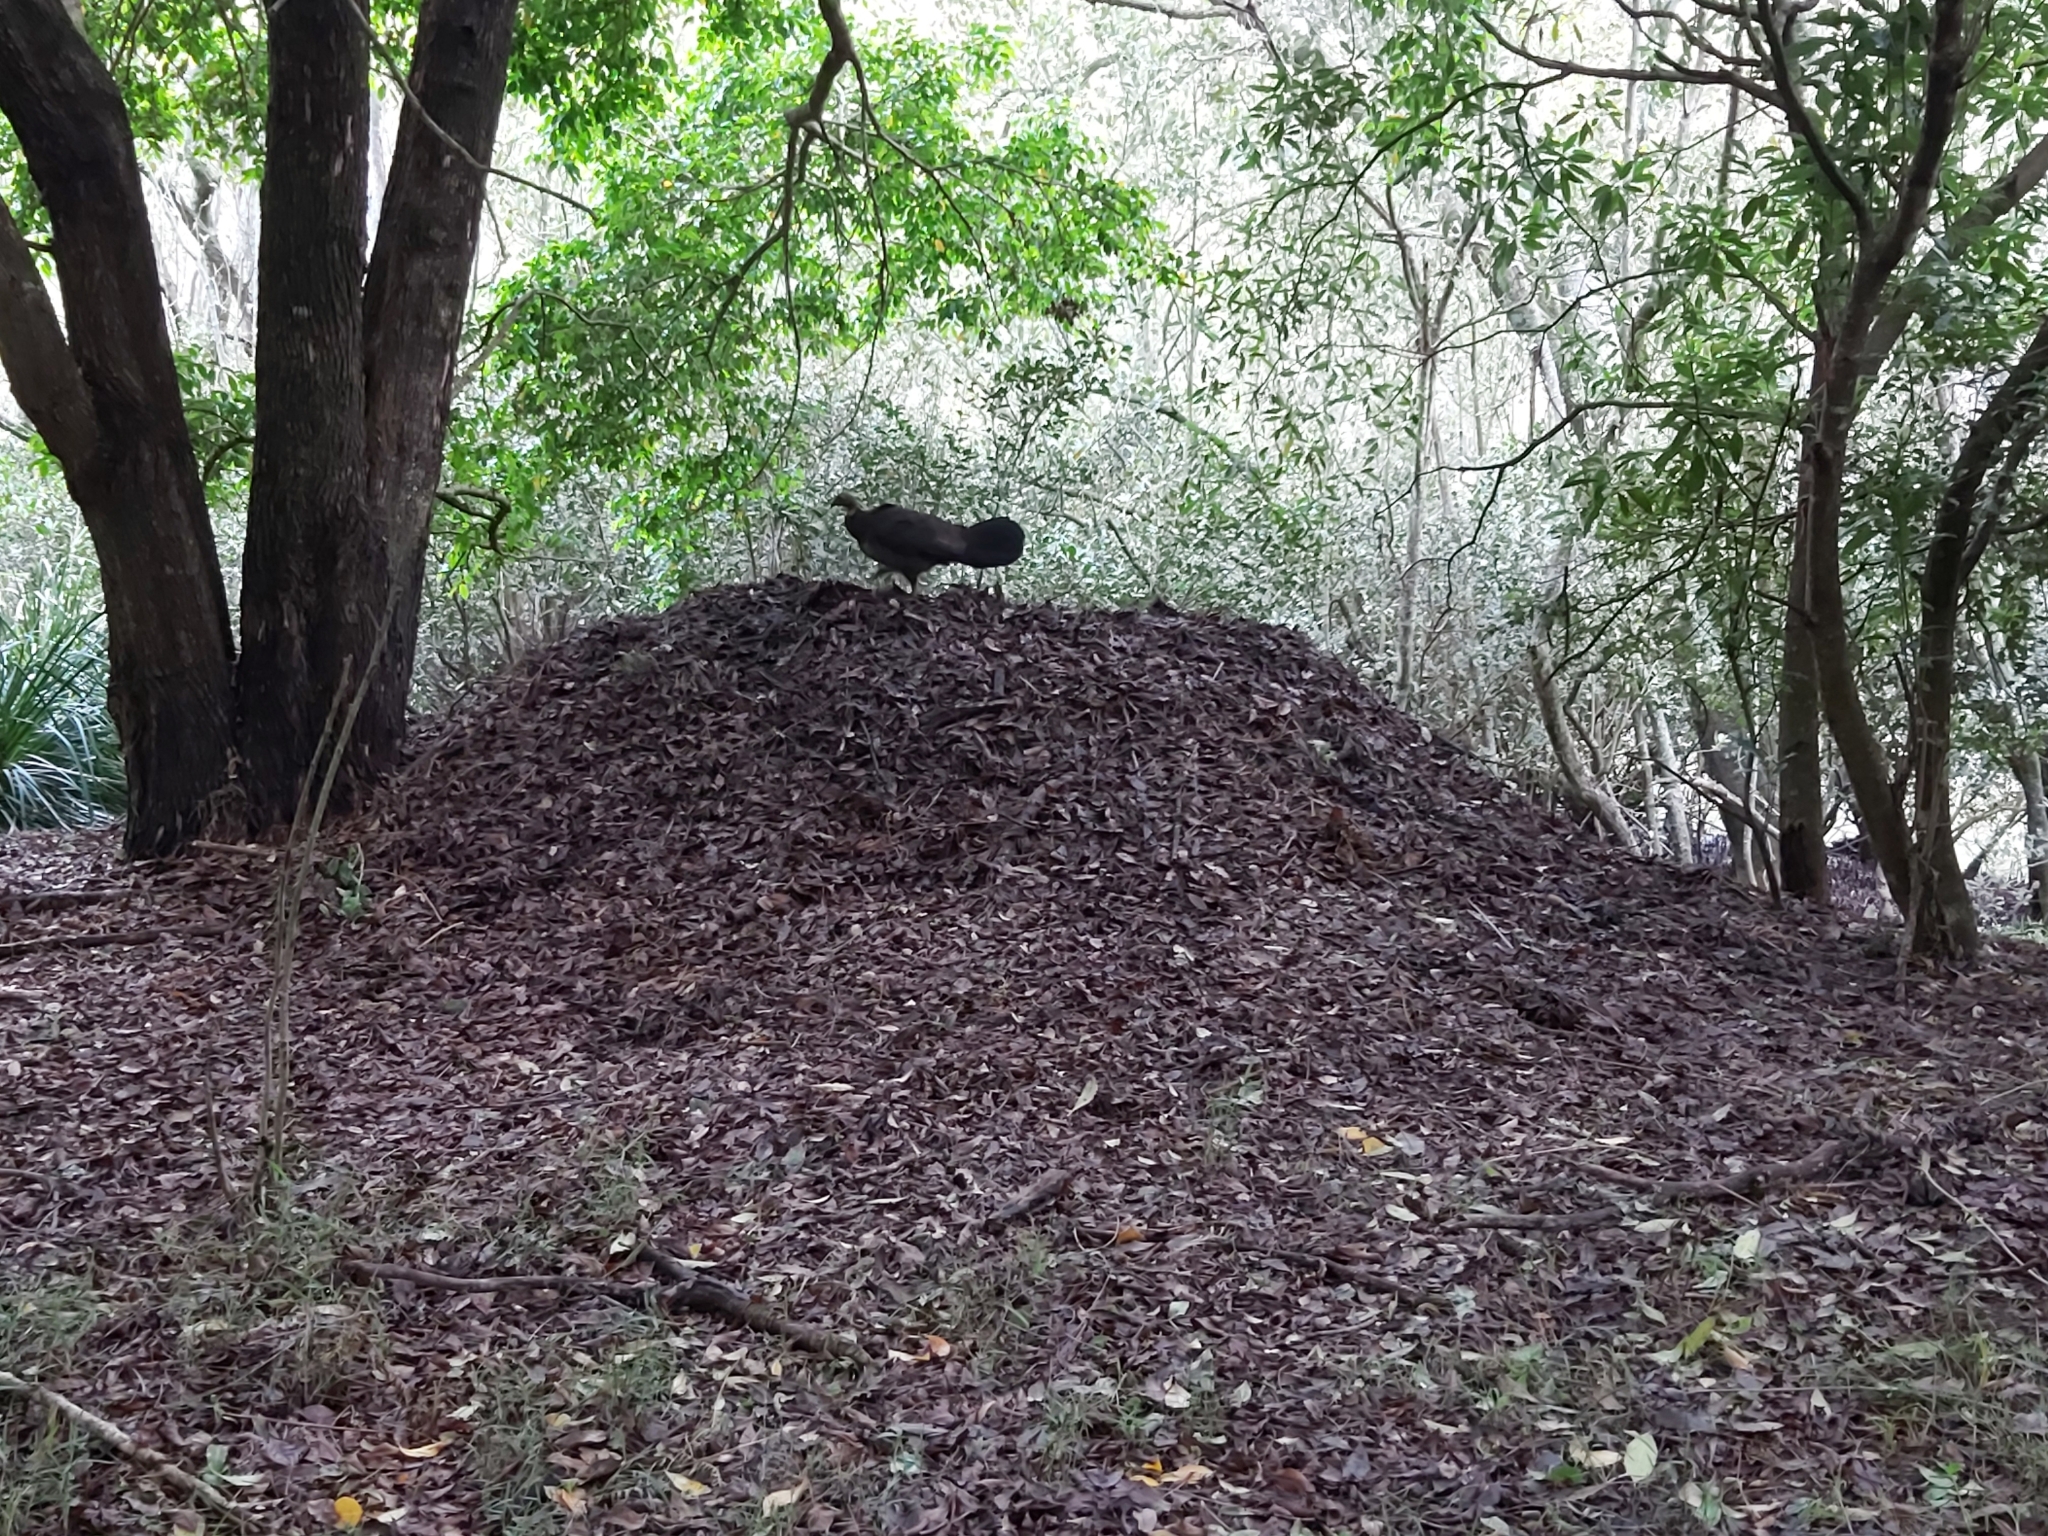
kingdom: Animalia
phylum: Chordata
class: Aves
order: Galliformes
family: Megapodiidae
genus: Alectura
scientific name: Alectura lathami
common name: Australian brushturkey
